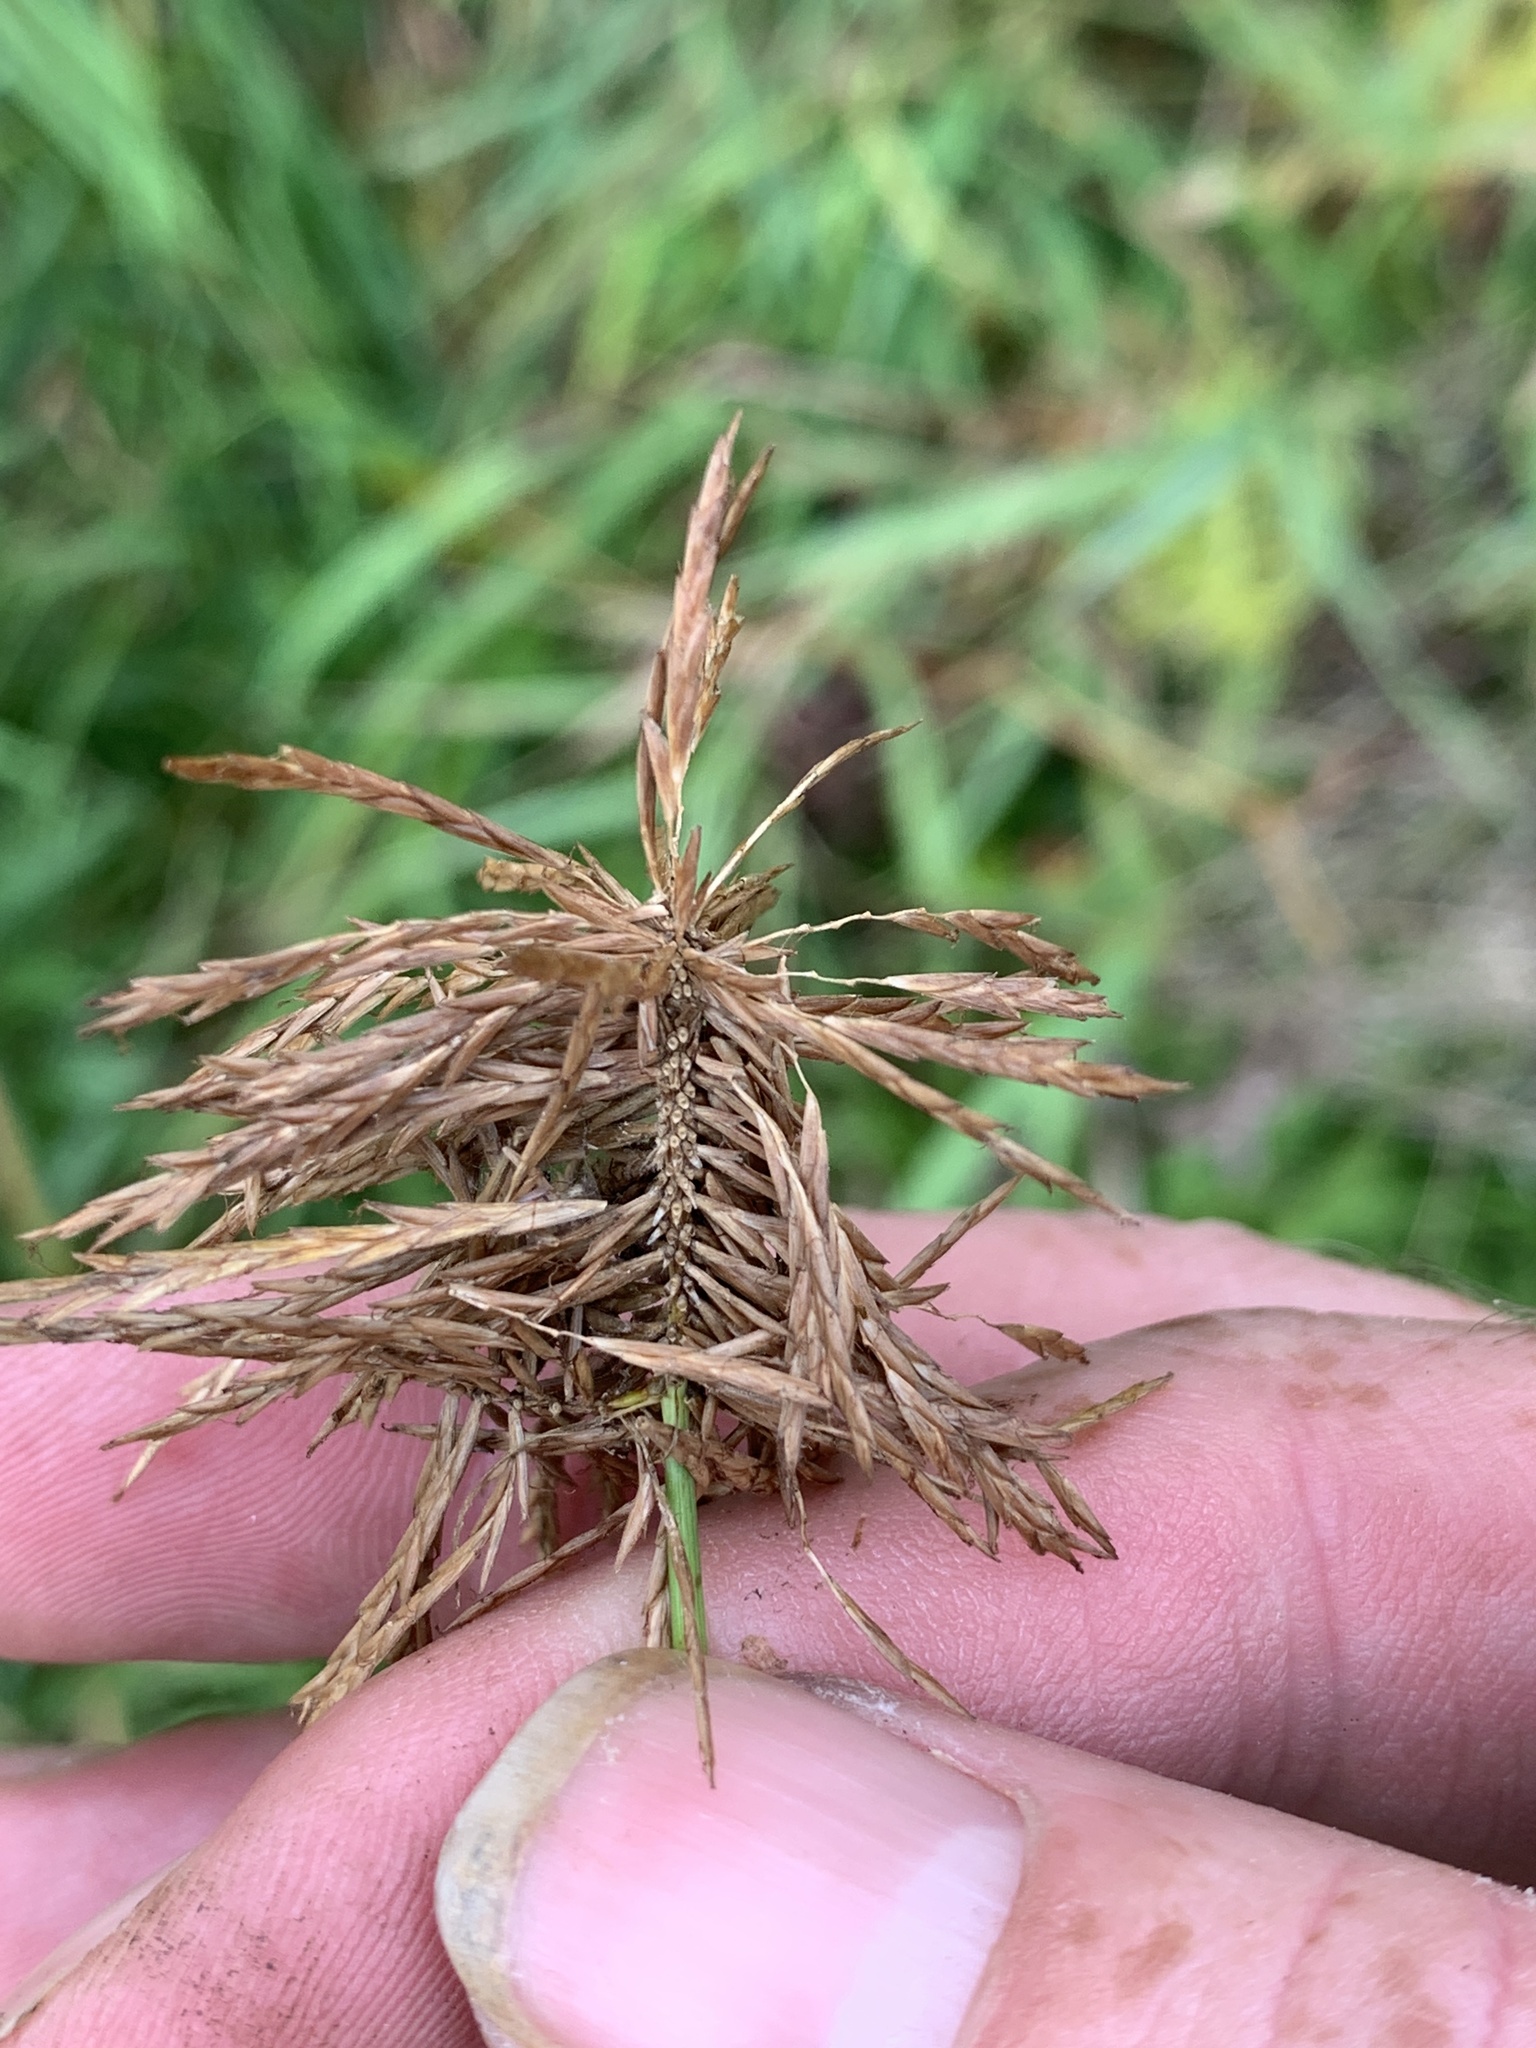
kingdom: Plantae
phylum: Tracheophyta
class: Liliopsida
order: Poales
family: Cyperaceae
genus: Cyperus
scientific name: Cyperus strigosus
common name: False nutsedge
